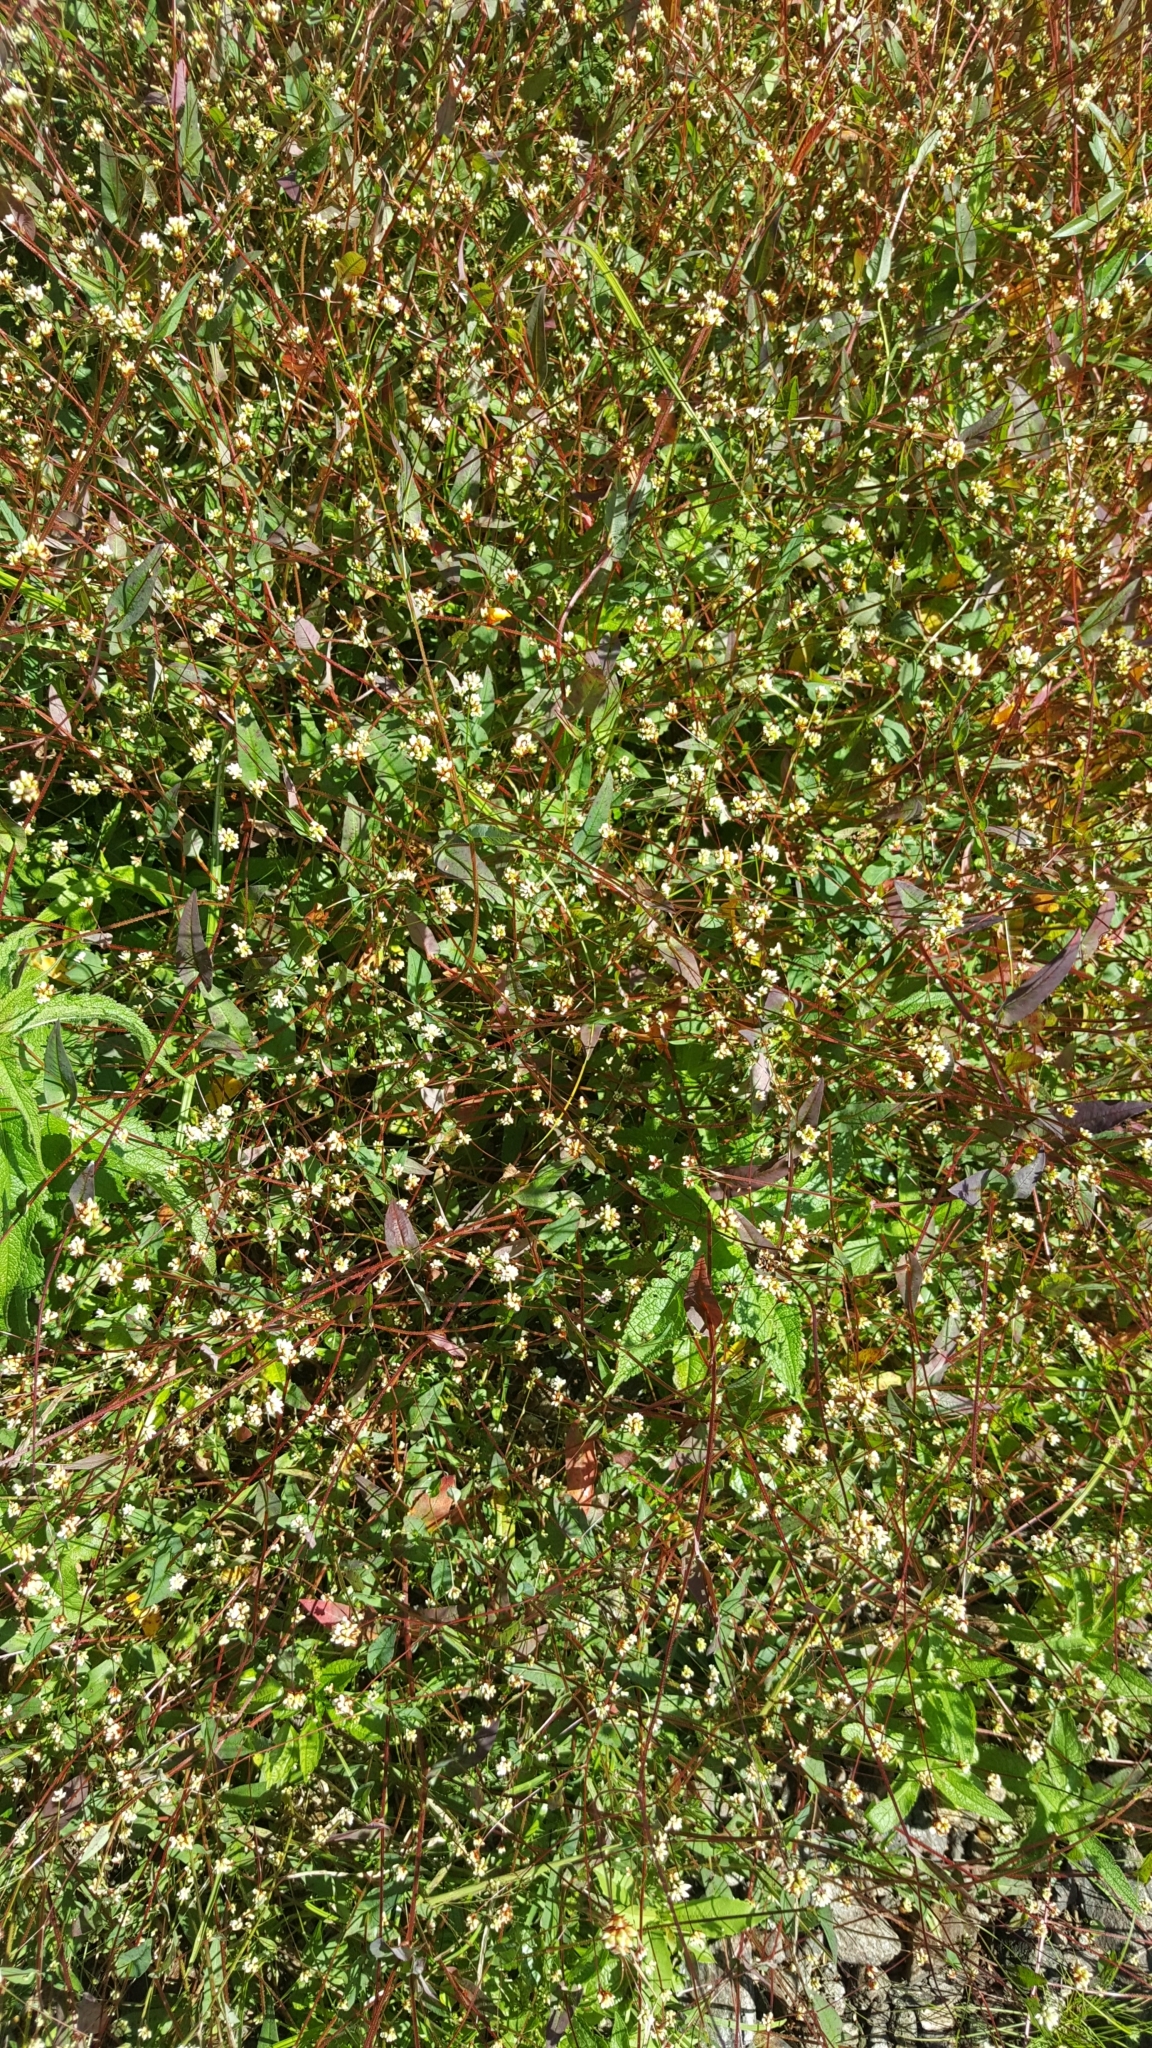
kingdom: Plantae
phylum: Tracheophyta
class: Magnoliopsida
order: Caryophyllales
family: Polygonaceae
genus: Persicaria
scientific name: Persicaria sagittata
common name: American tearthumb
